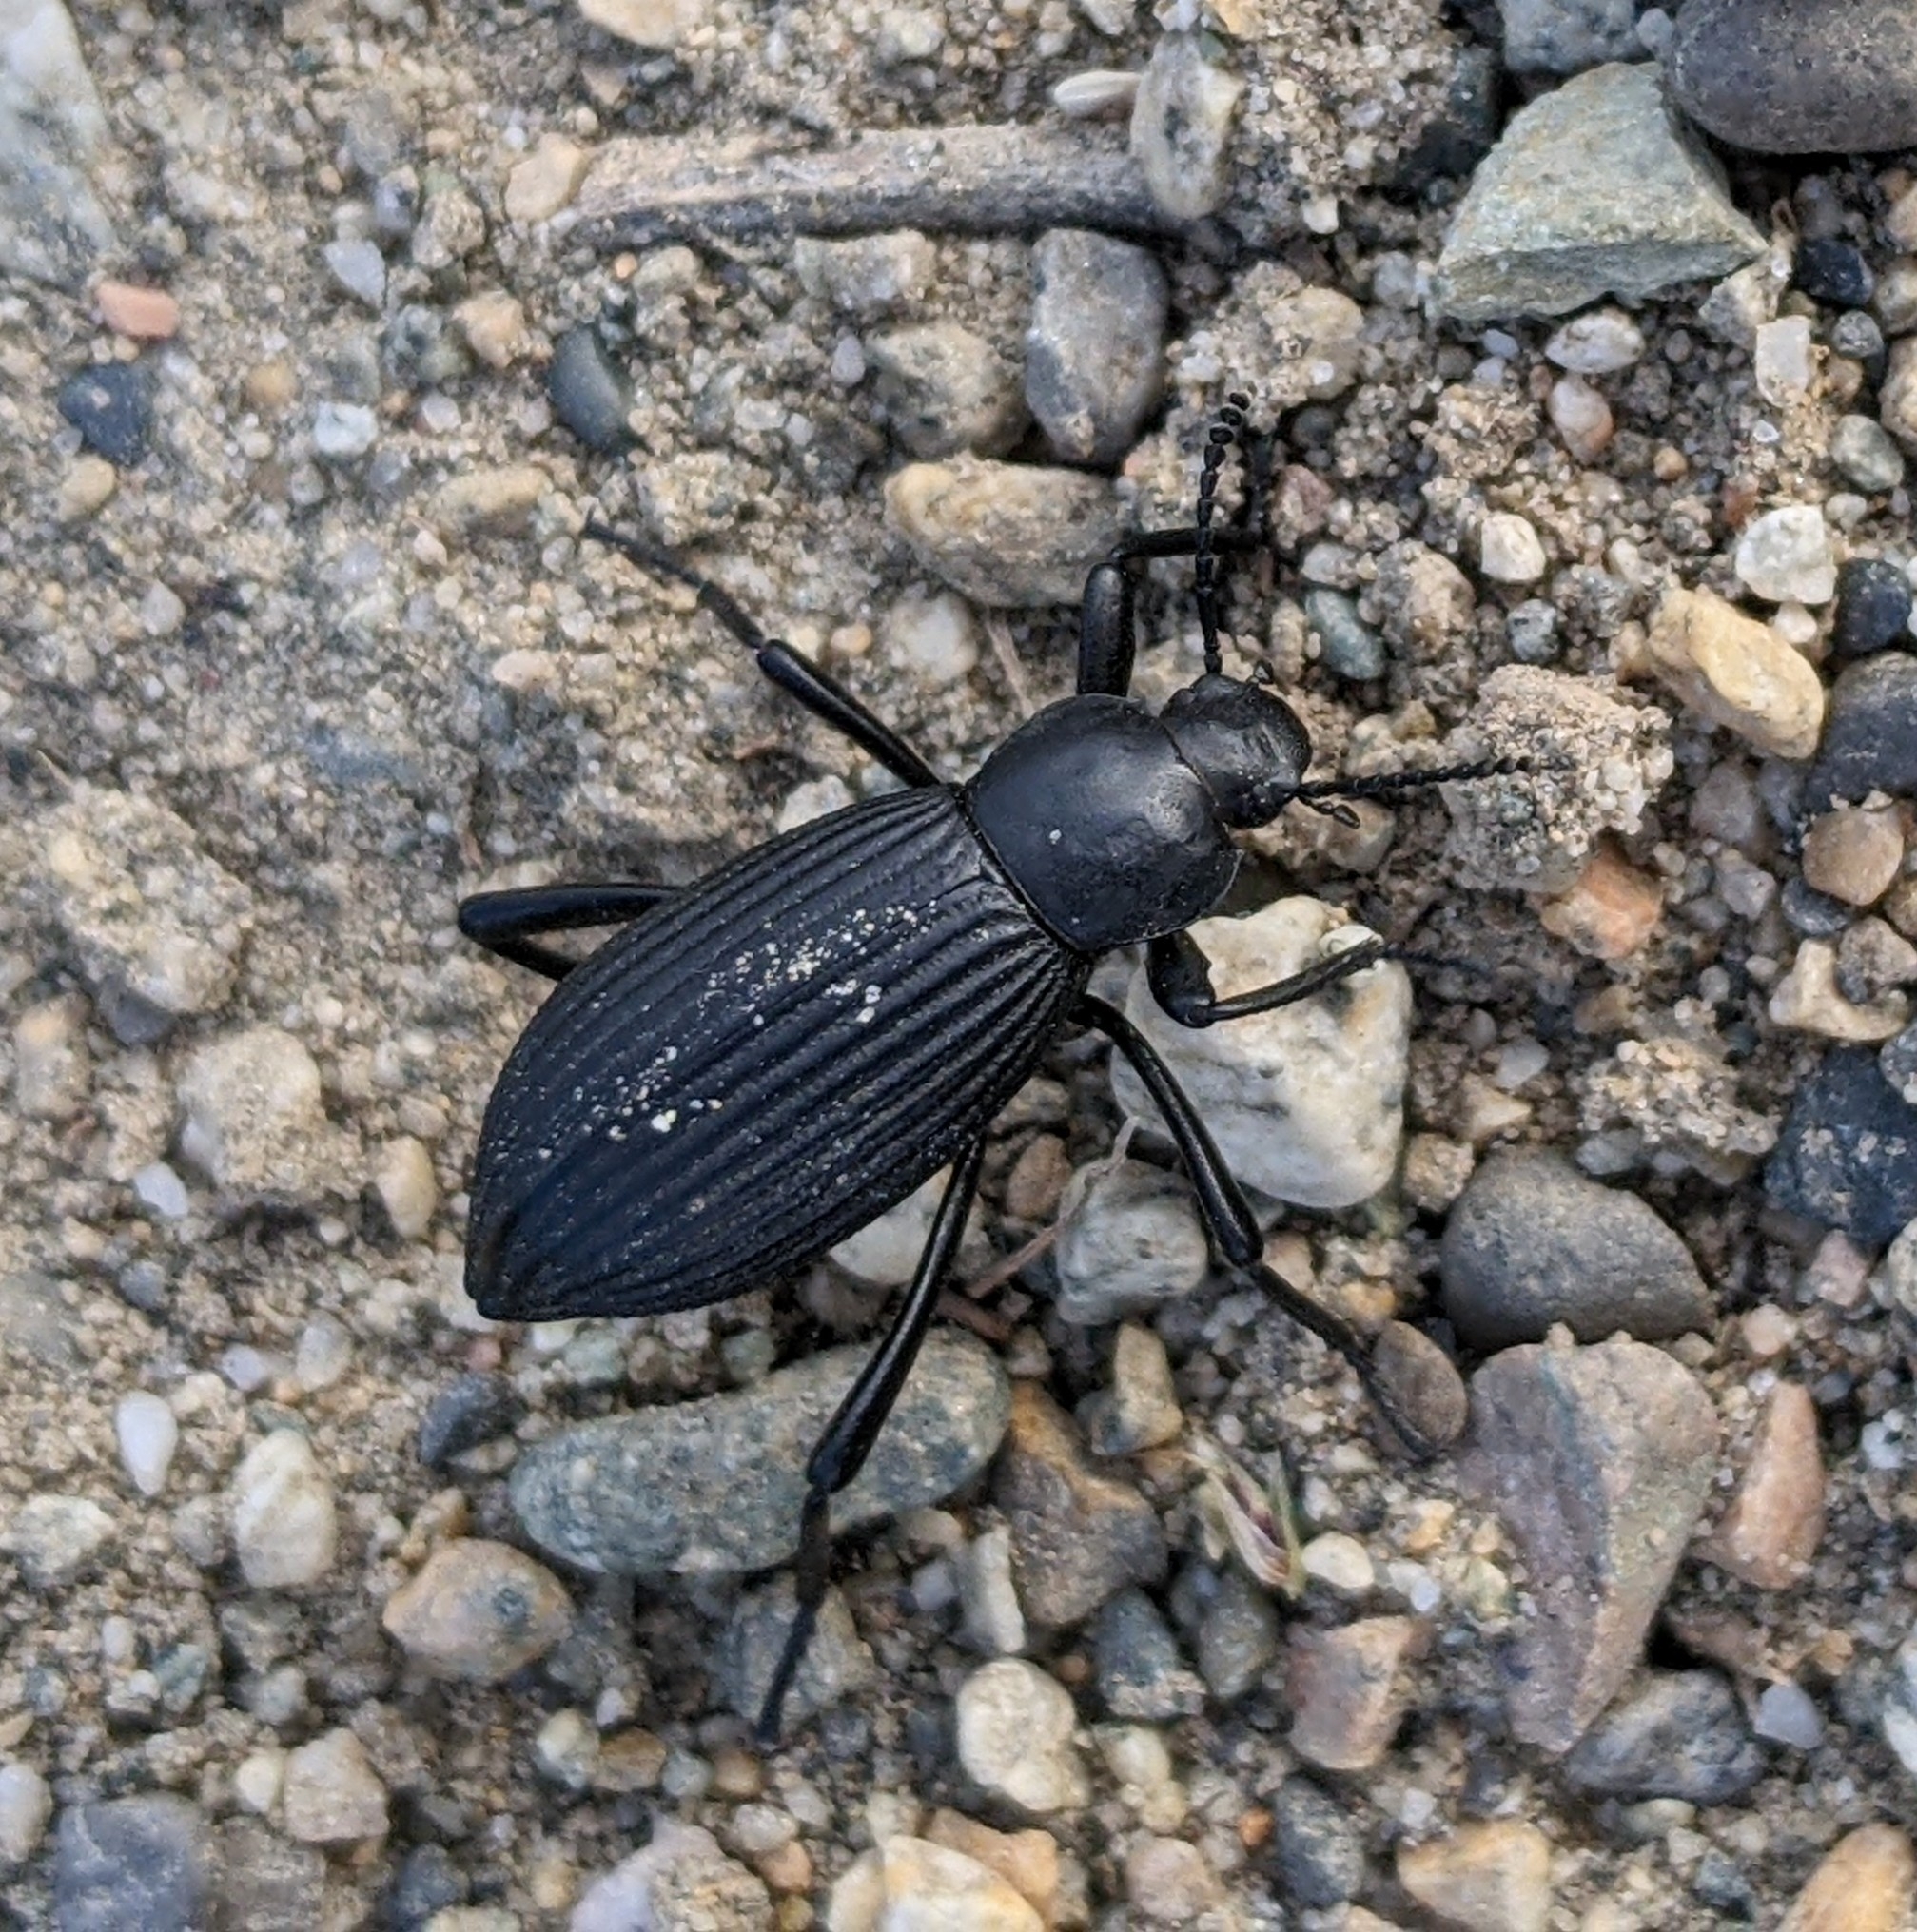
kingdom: Animalia
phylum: Arthropoda
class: Insecta
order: Coleoptera
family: Tenebrionidae
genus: Eleodes
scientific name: Eleodes hispilabris
